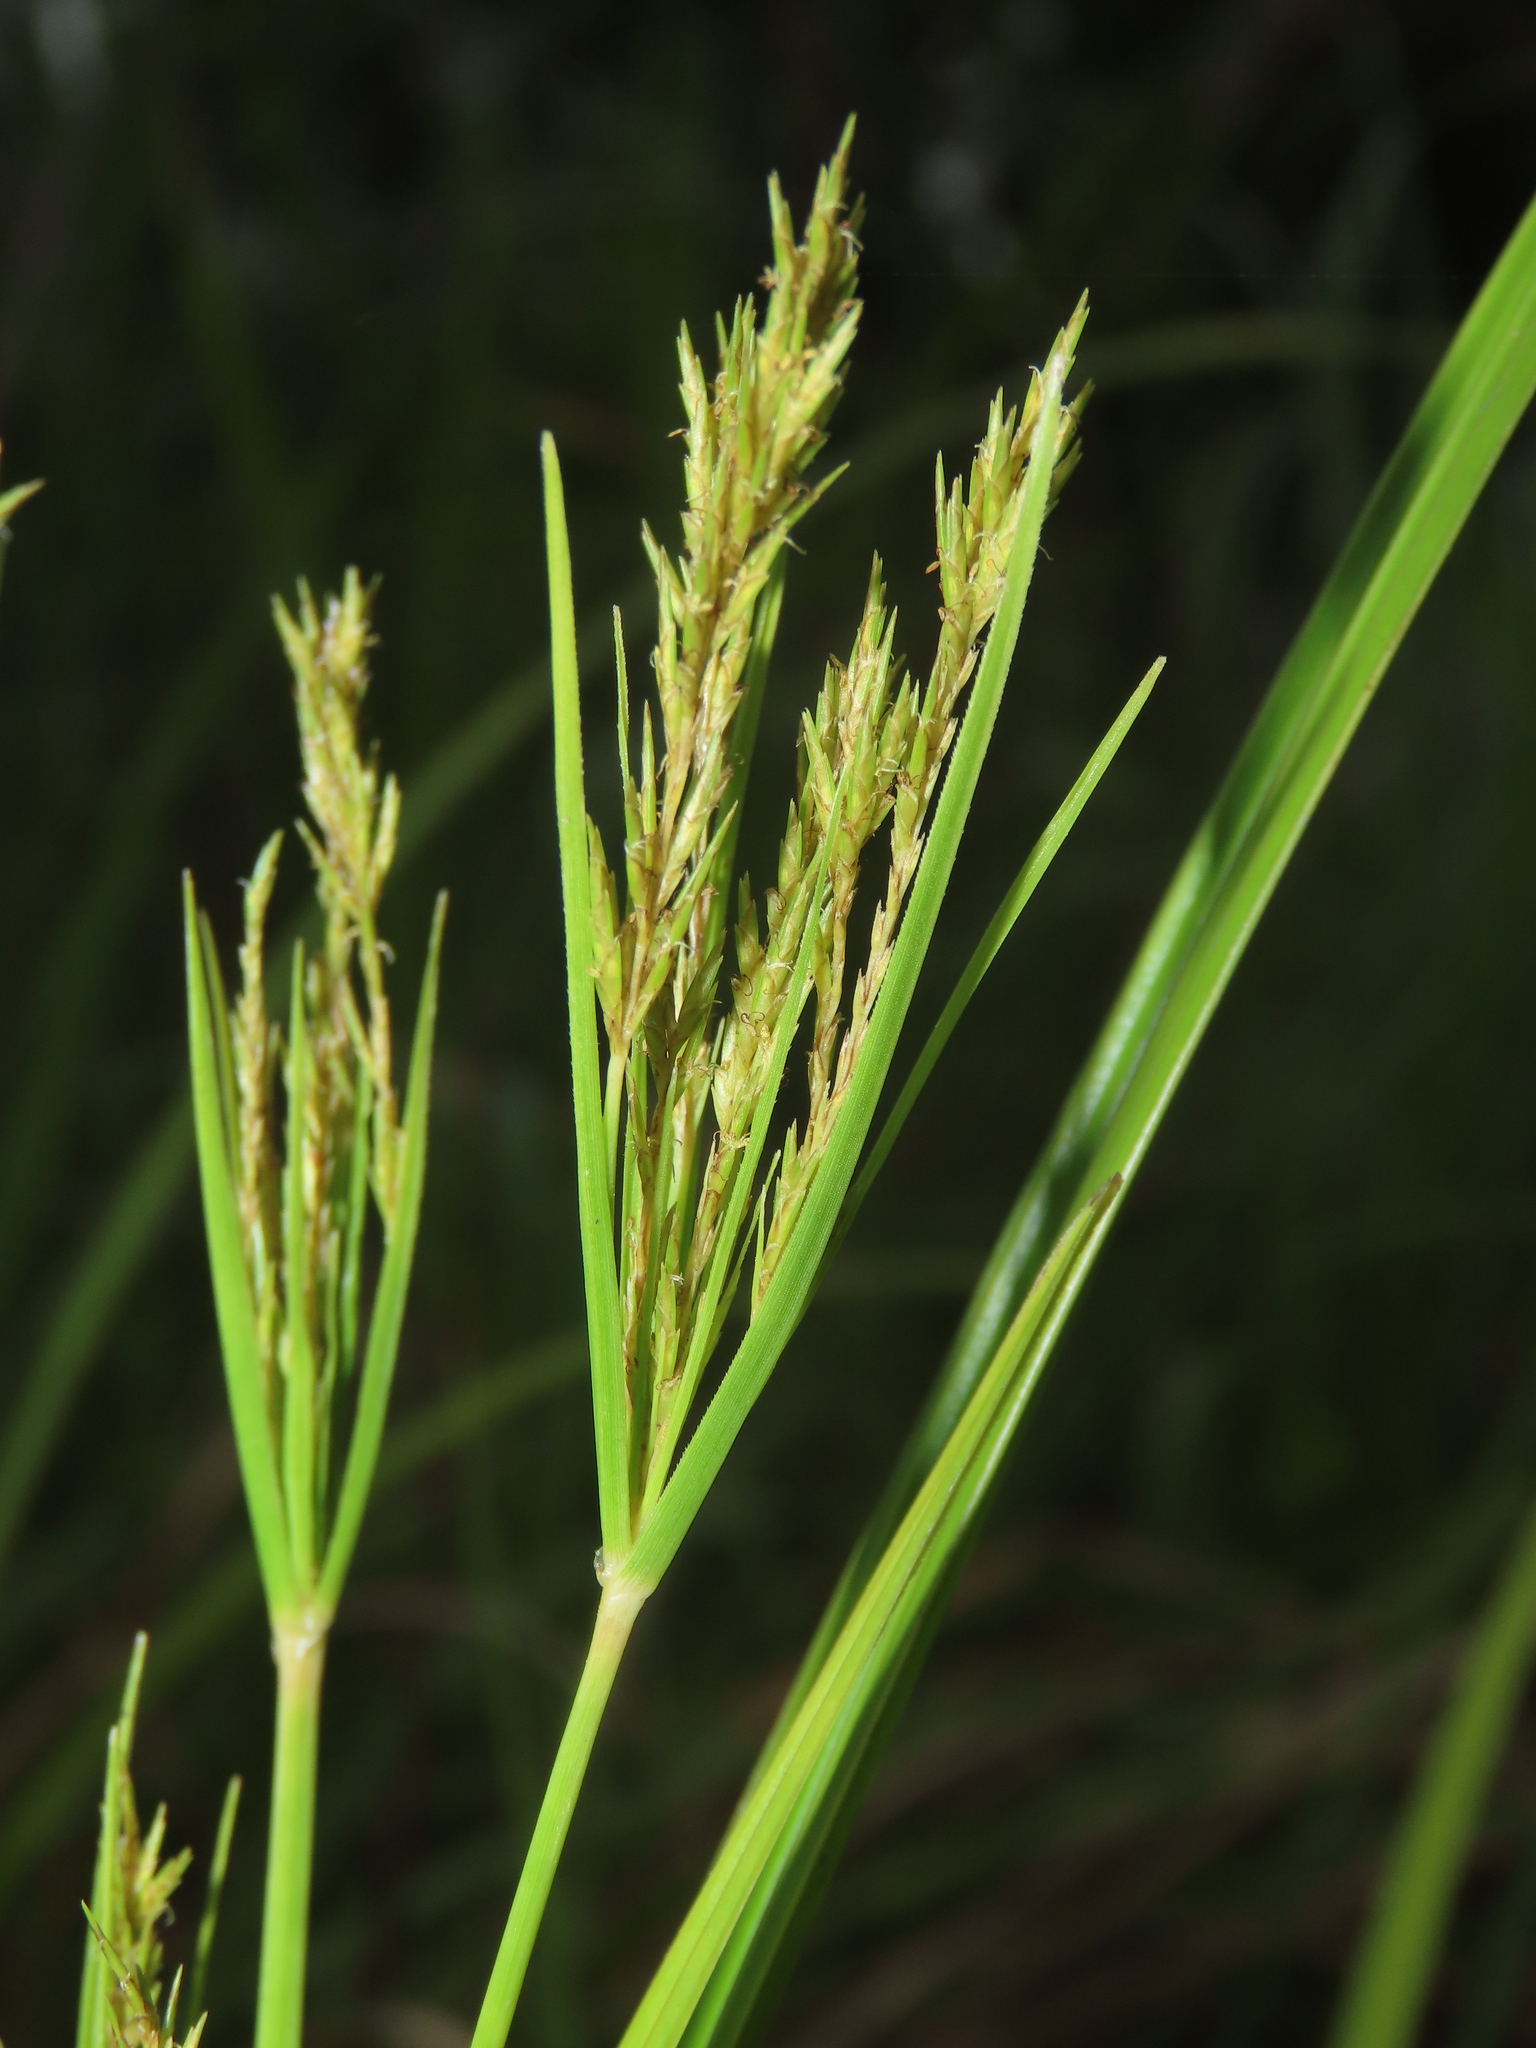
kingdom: Plantae
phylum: Tracheophyta
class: Liliopsida
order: Poales
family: Cyperaceae
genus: Cyperus
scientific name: Cyperus nutans
